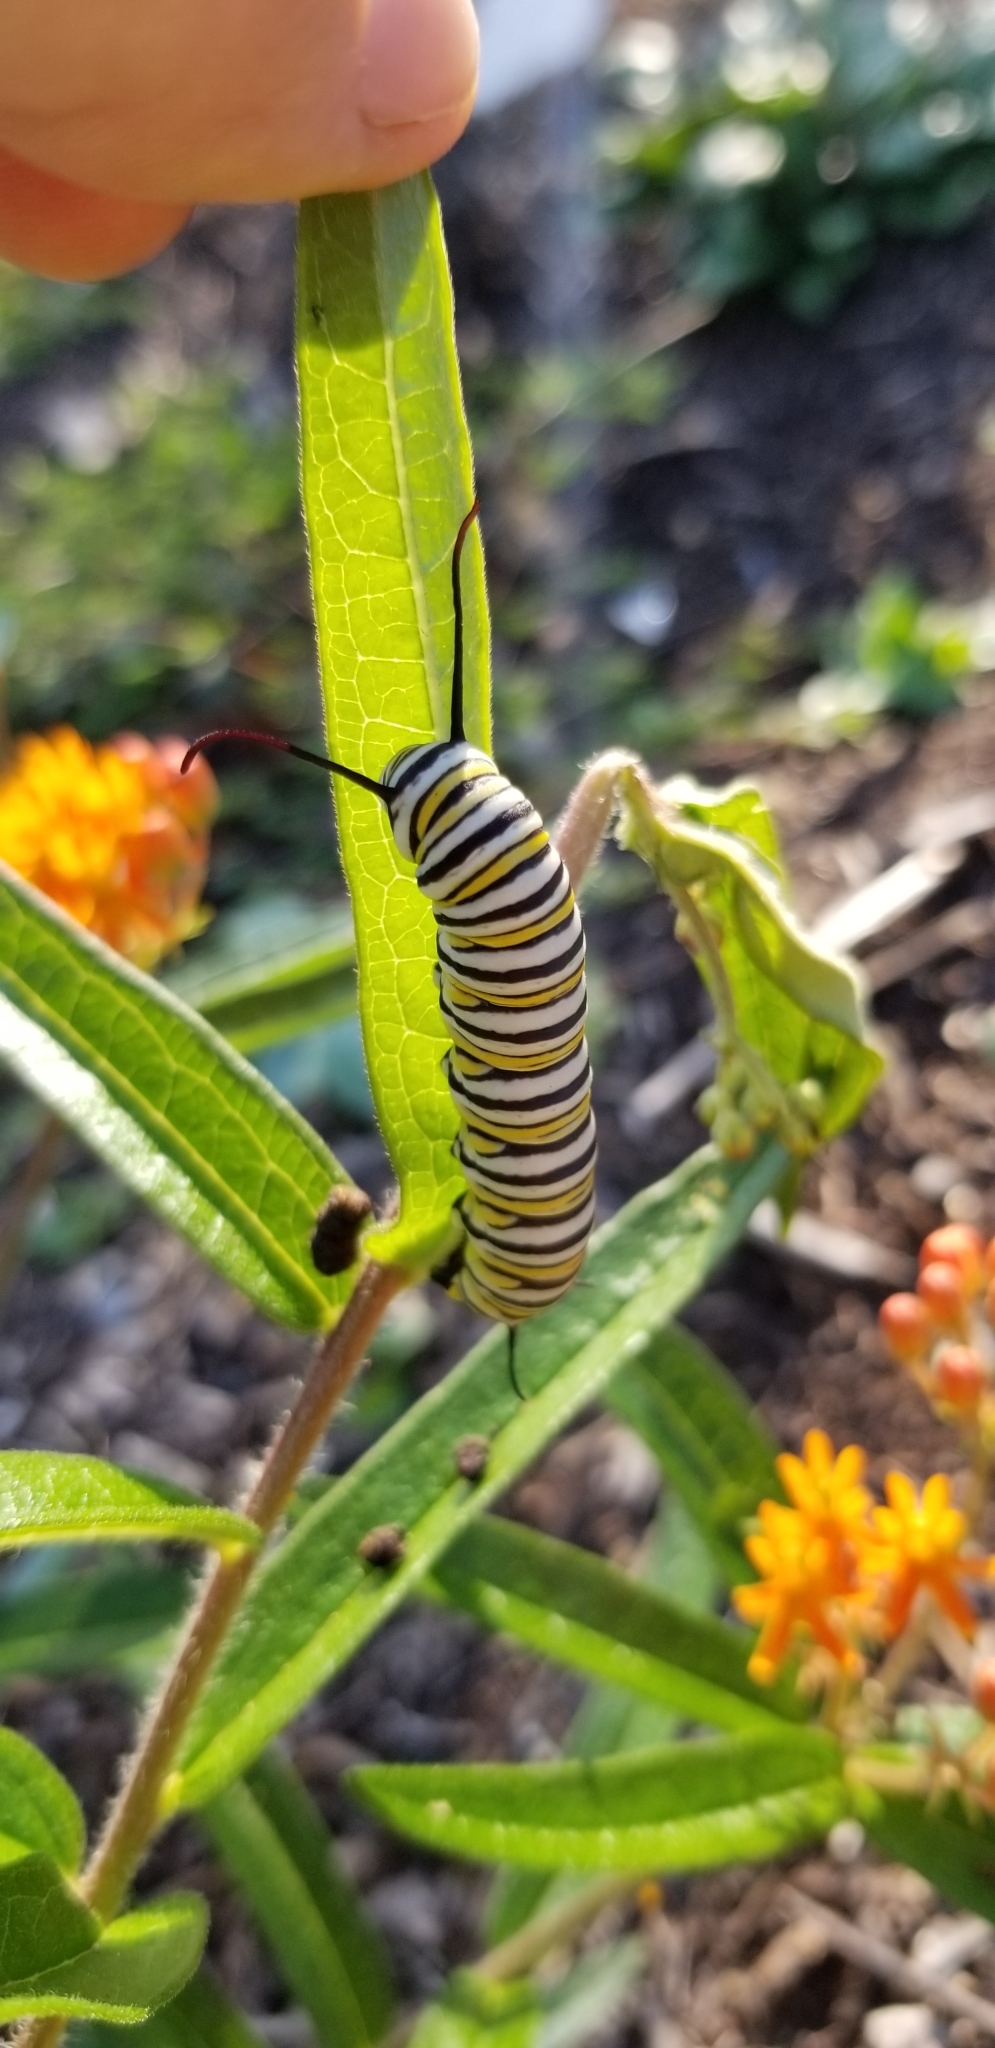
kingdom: Animalia
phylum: Arthropoda
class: Insecta
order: Lepidoptera
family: Nymphalidae
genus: Danaus
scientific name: Danaus plexippus
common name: Monarch
